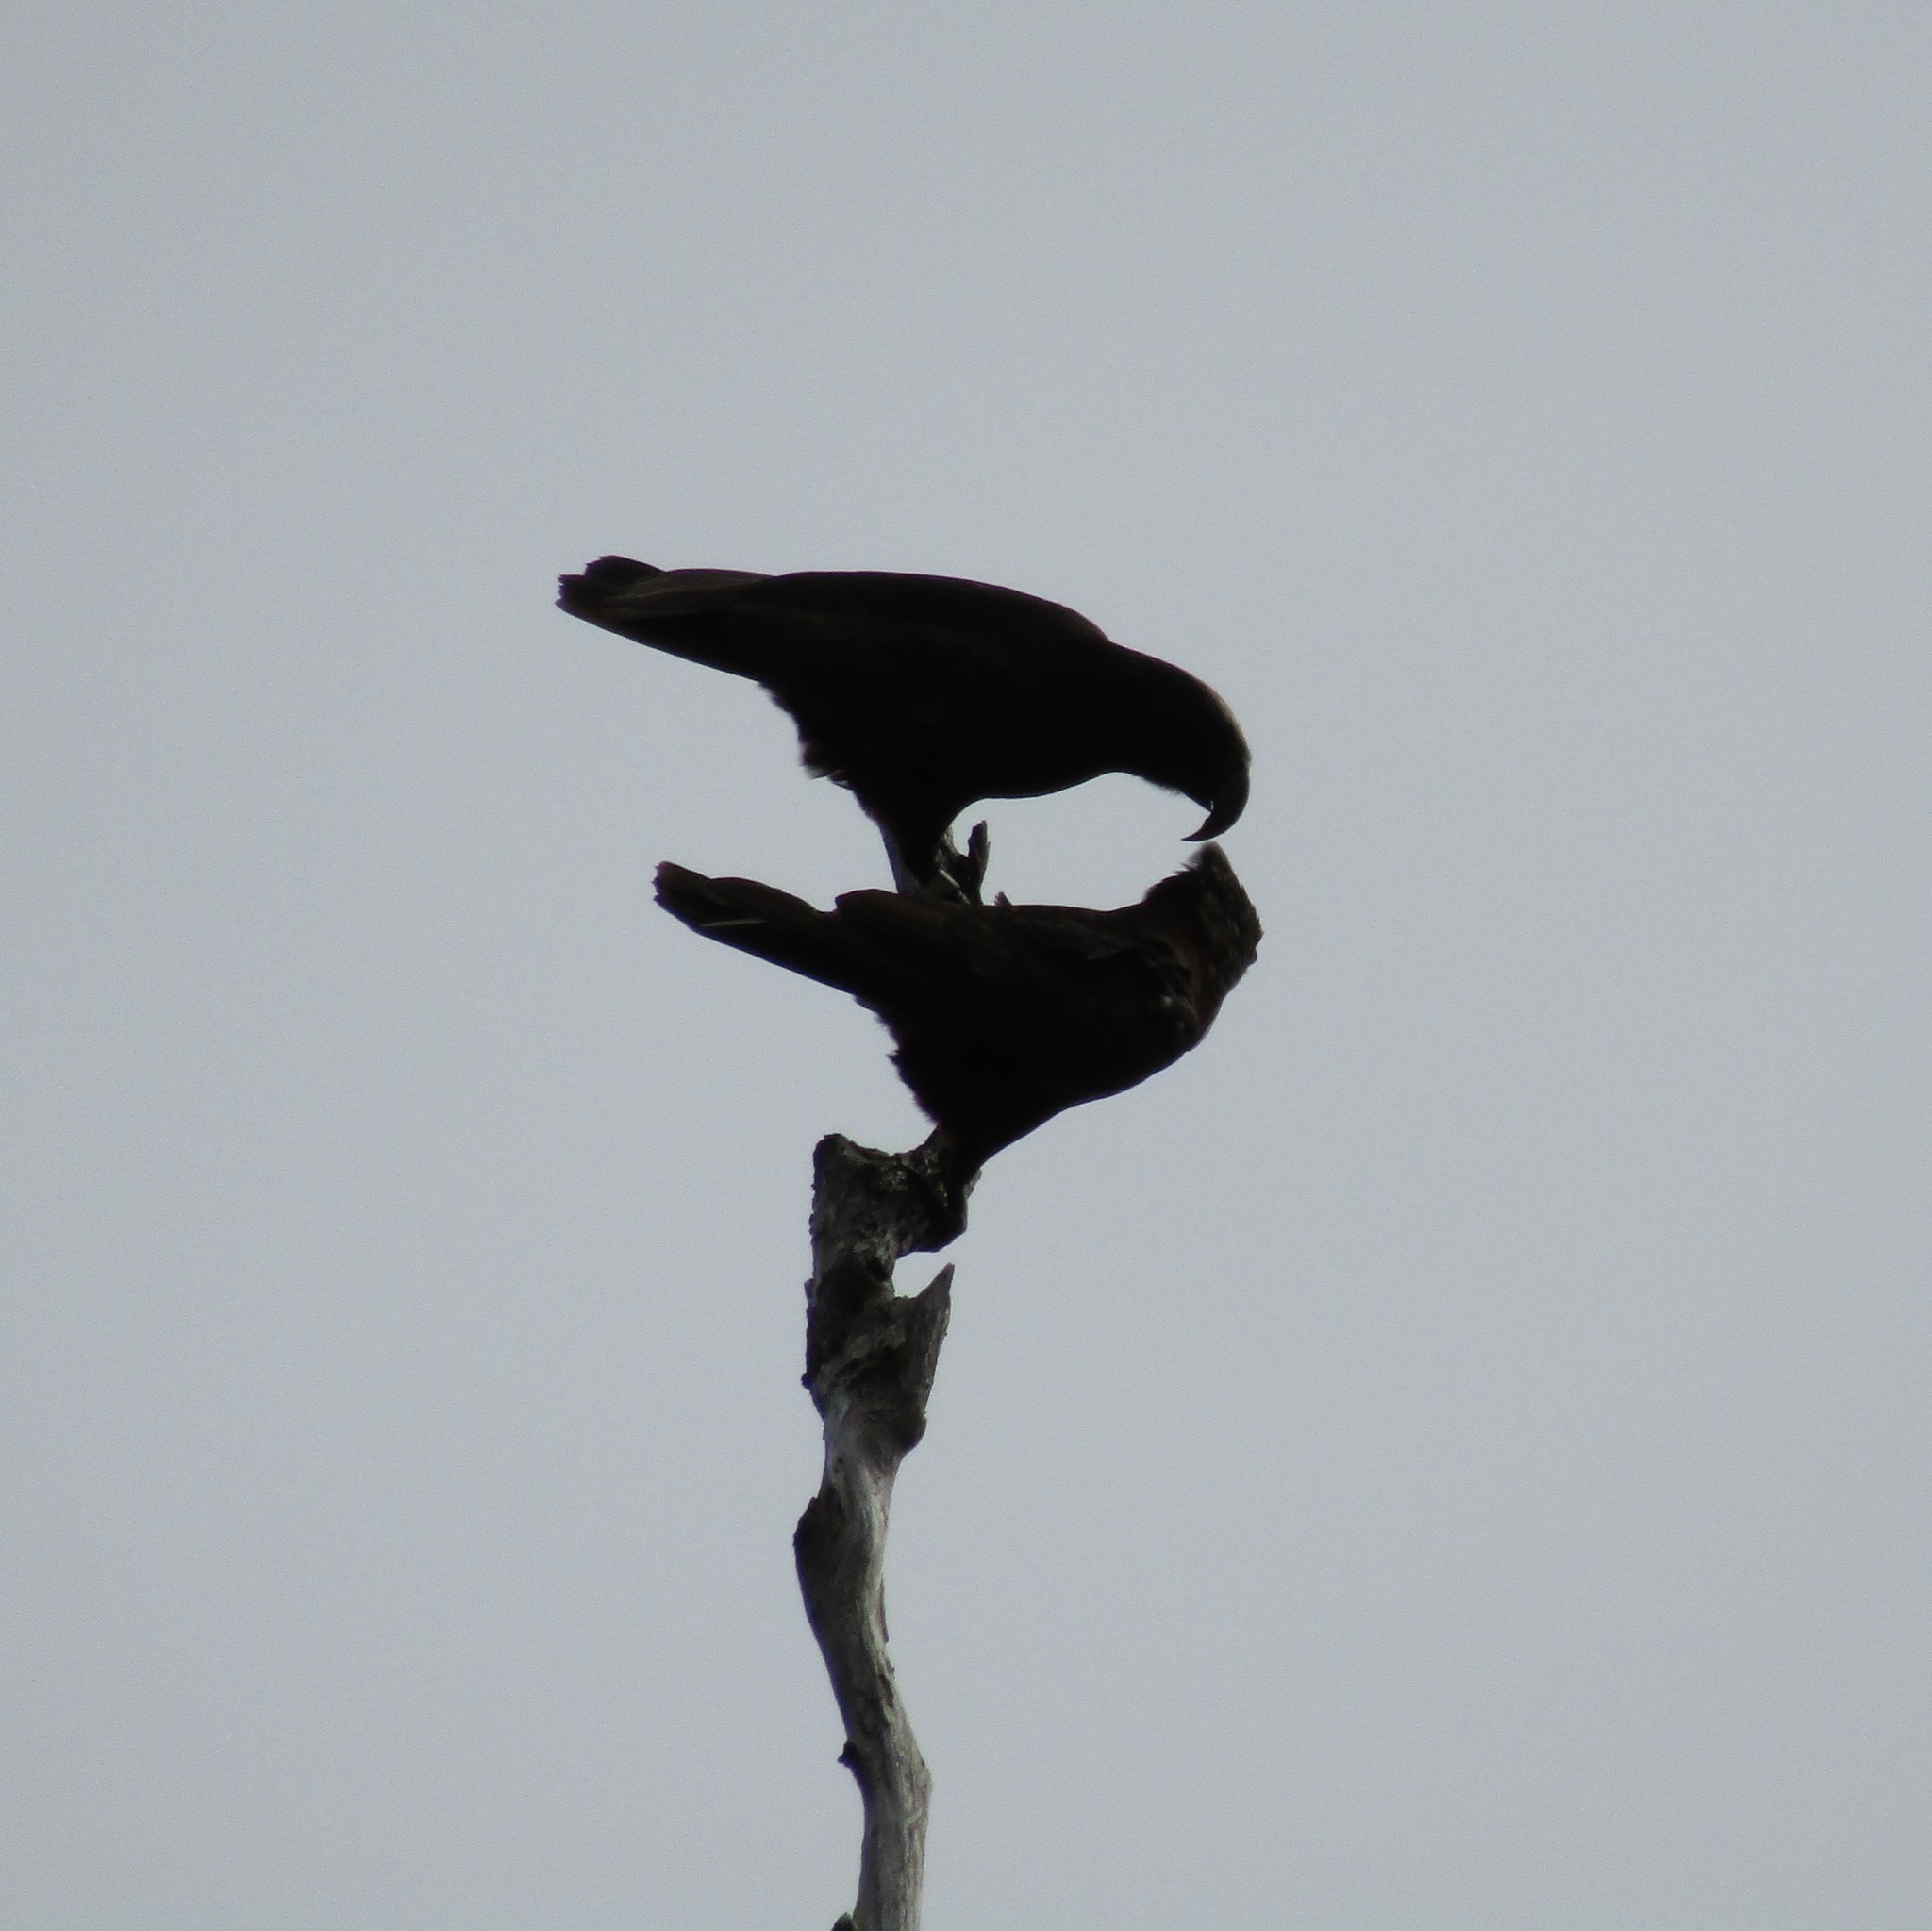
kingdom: Animalia
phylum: Chordata
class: Aves
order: Psittaciformes
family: Psittacidae
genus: Nestor
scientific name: Nestor meridionalis
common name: New zealand kaka
